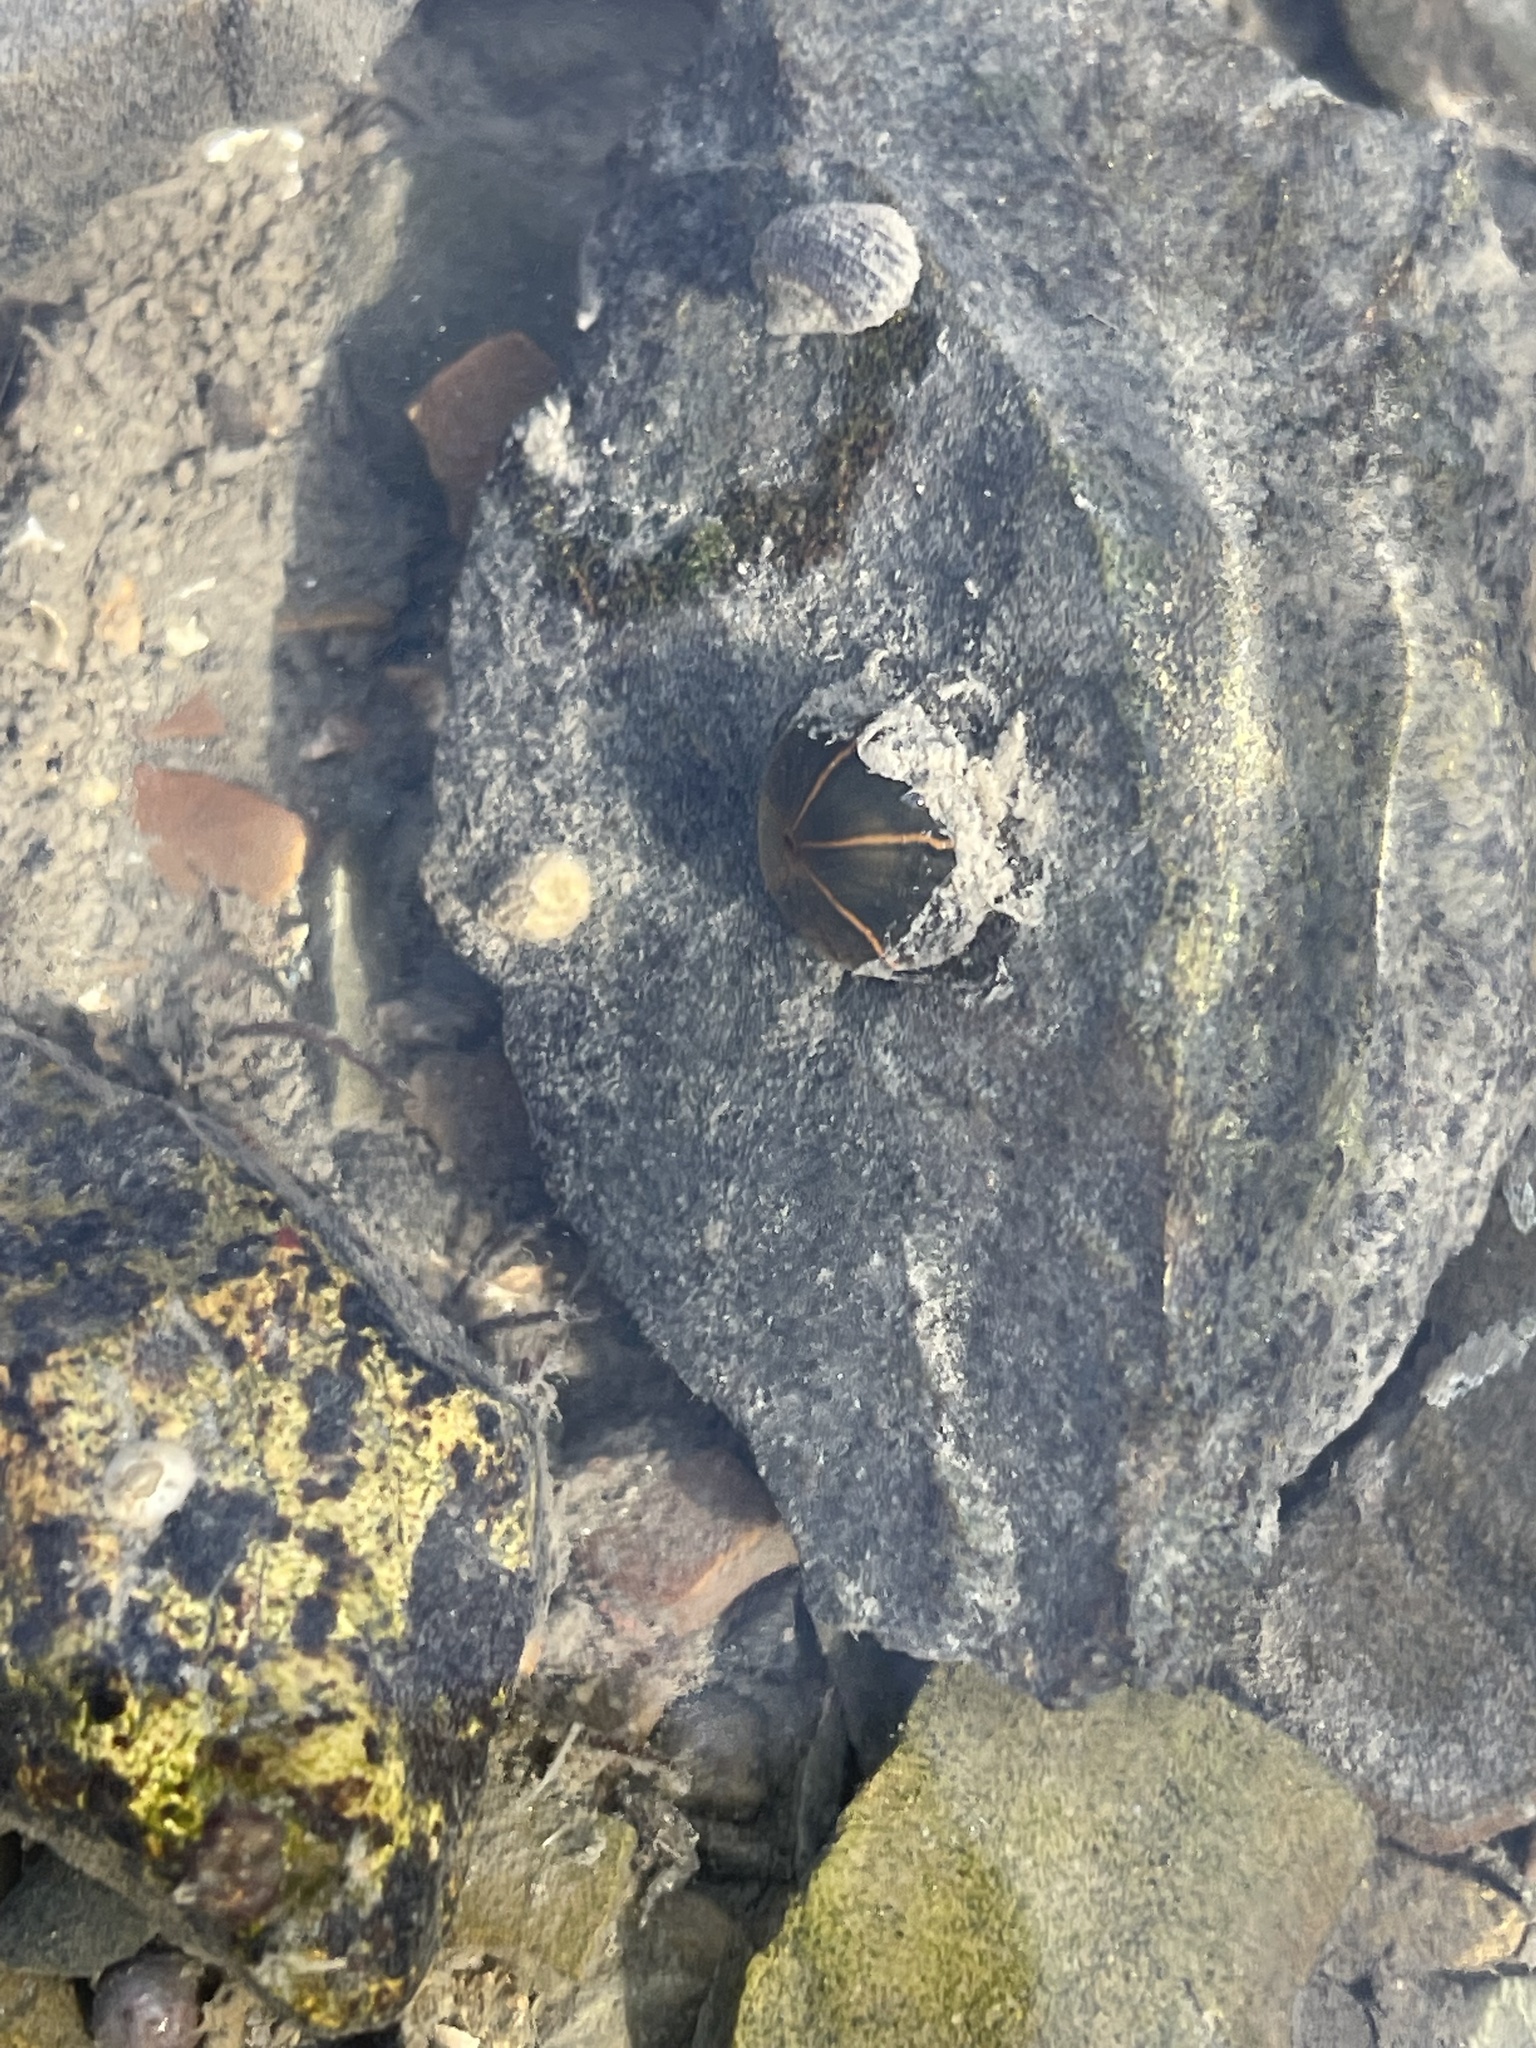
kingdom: Animalia
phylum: Cnidaria
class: Anthozoa
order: Actiniaria
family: Diadumenidae
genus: Diadumene
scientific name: Diadumene lineata
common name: Orange-striped anemone
